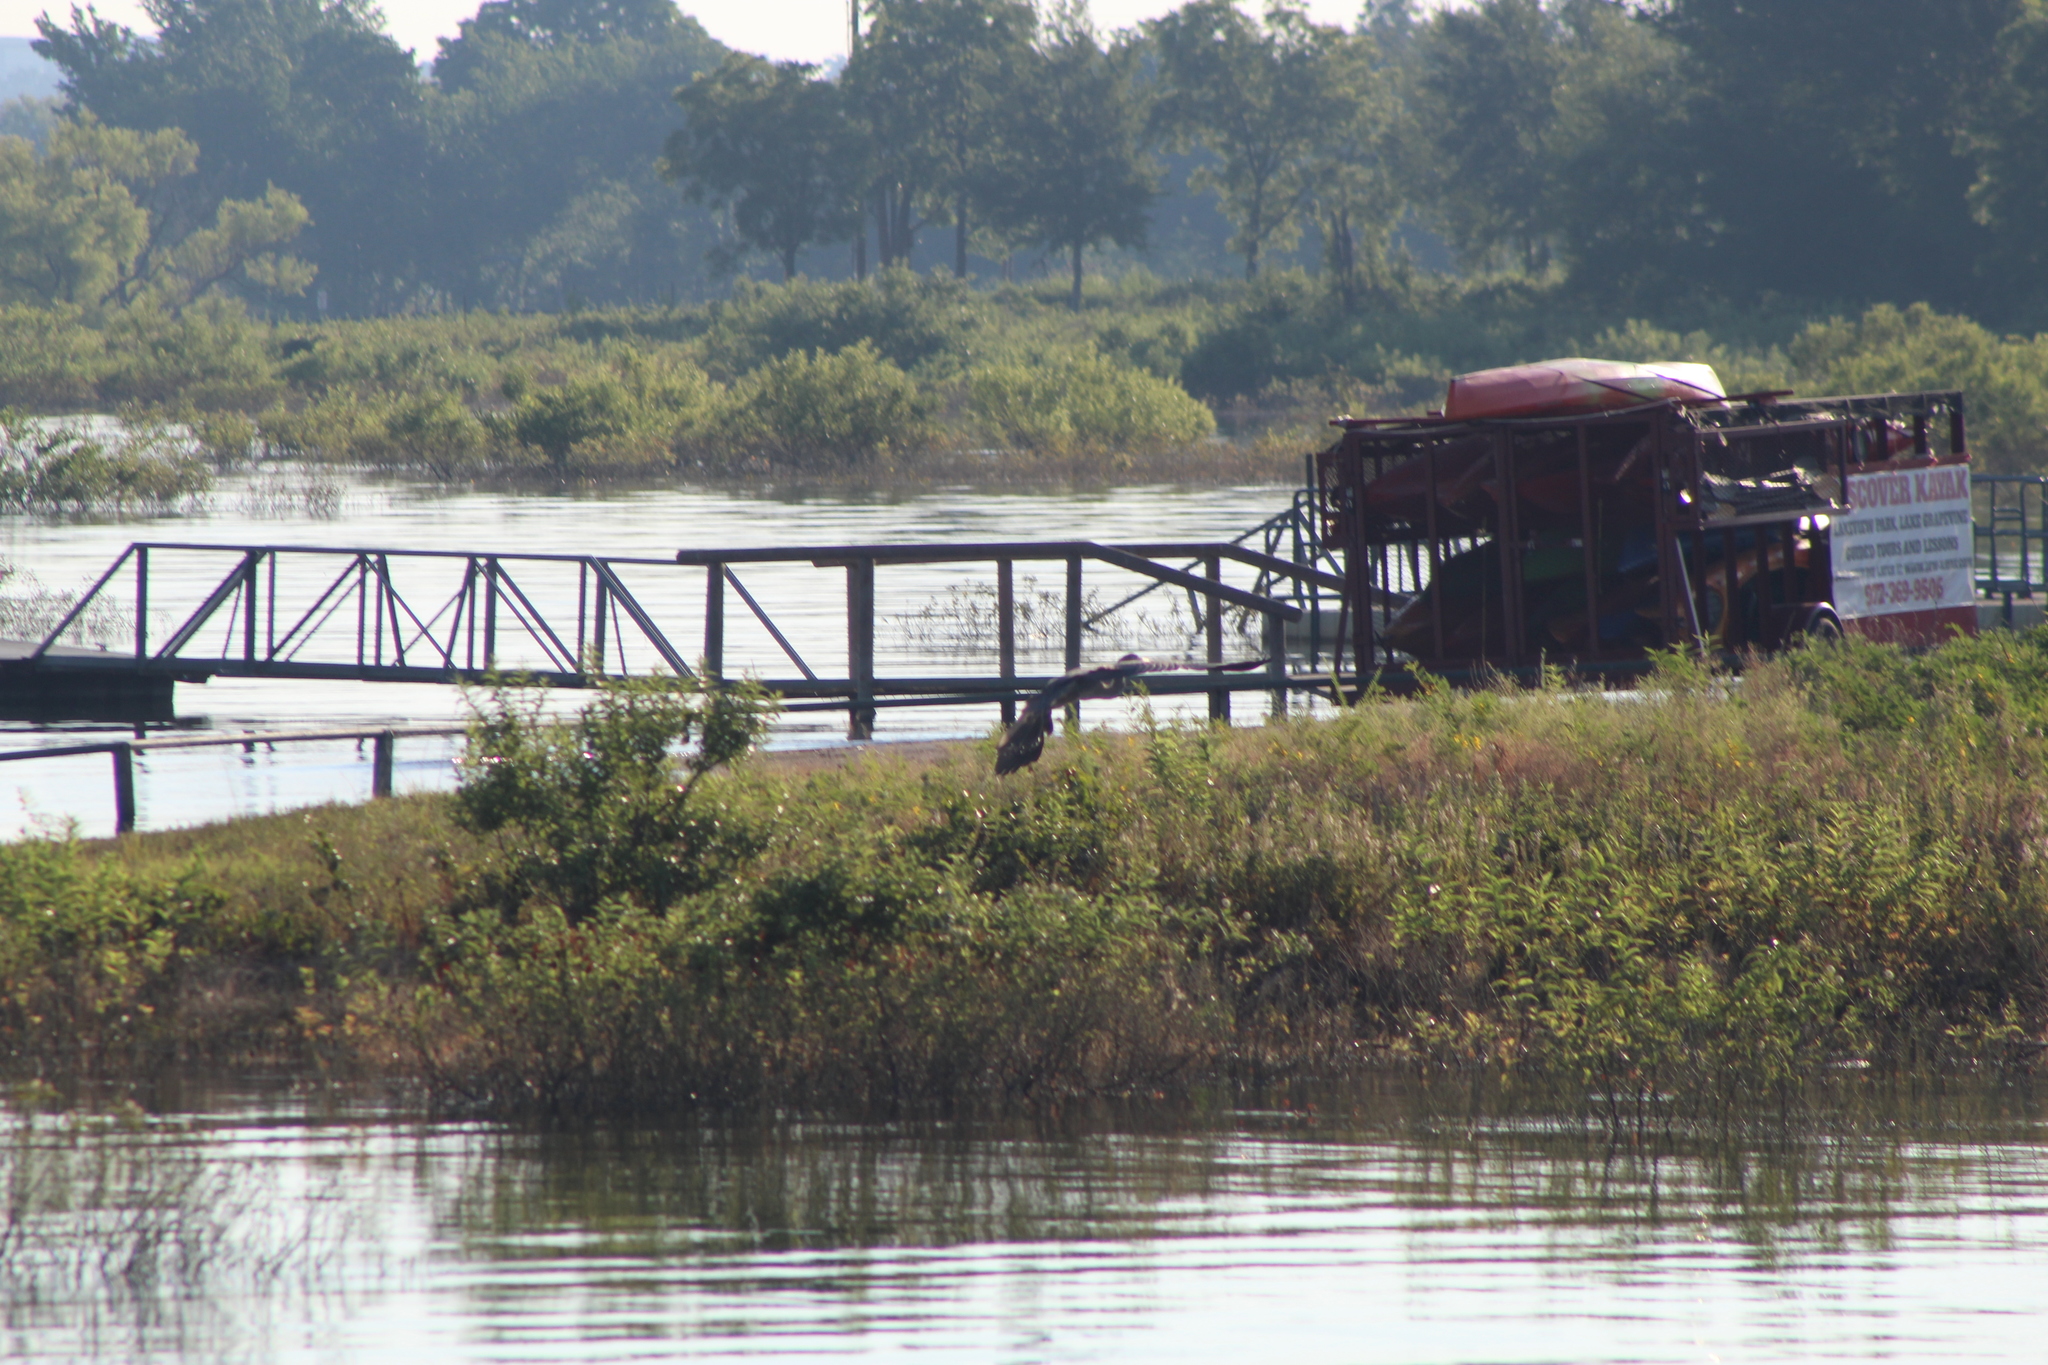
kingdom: Animalia
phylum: Chordata
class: Aves
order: Pelecaniformes
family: Ardeidae
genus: Ardea
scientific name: Ardea herodias
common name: Great blue heron
